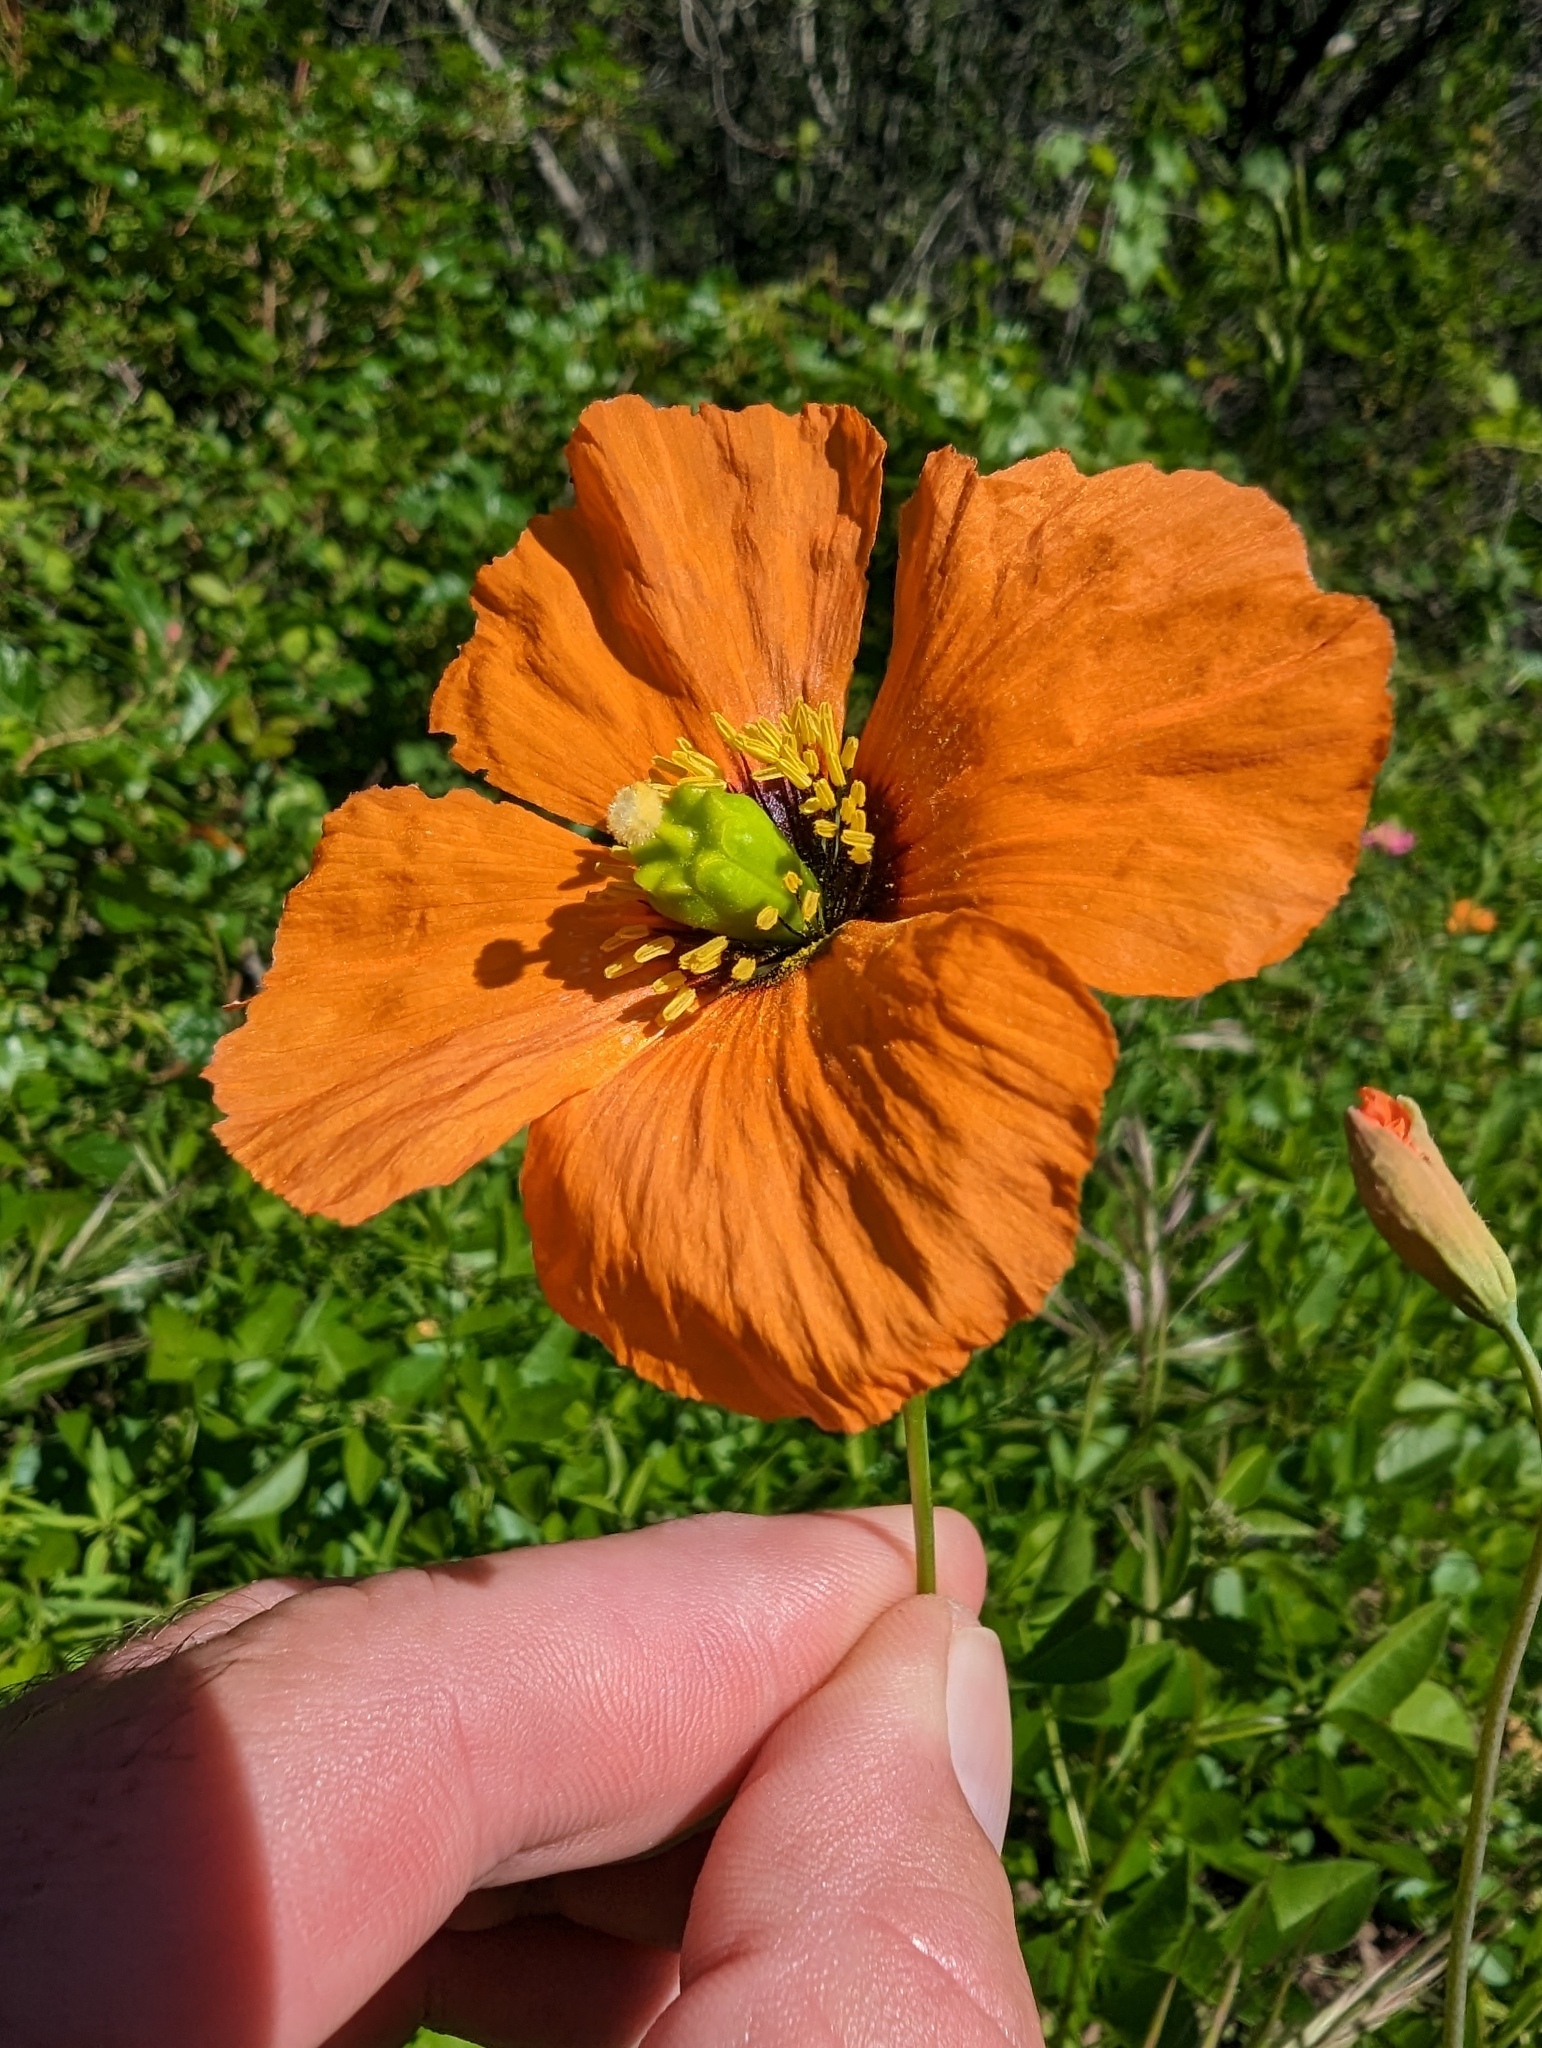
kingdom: Plantae
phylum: Tracheophyta
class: Magnoliopsida
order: Ranunculales
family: Papaveraceae
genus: Stylomecon
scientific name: Stylomecon heterophylla
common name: Flaming-poppy
